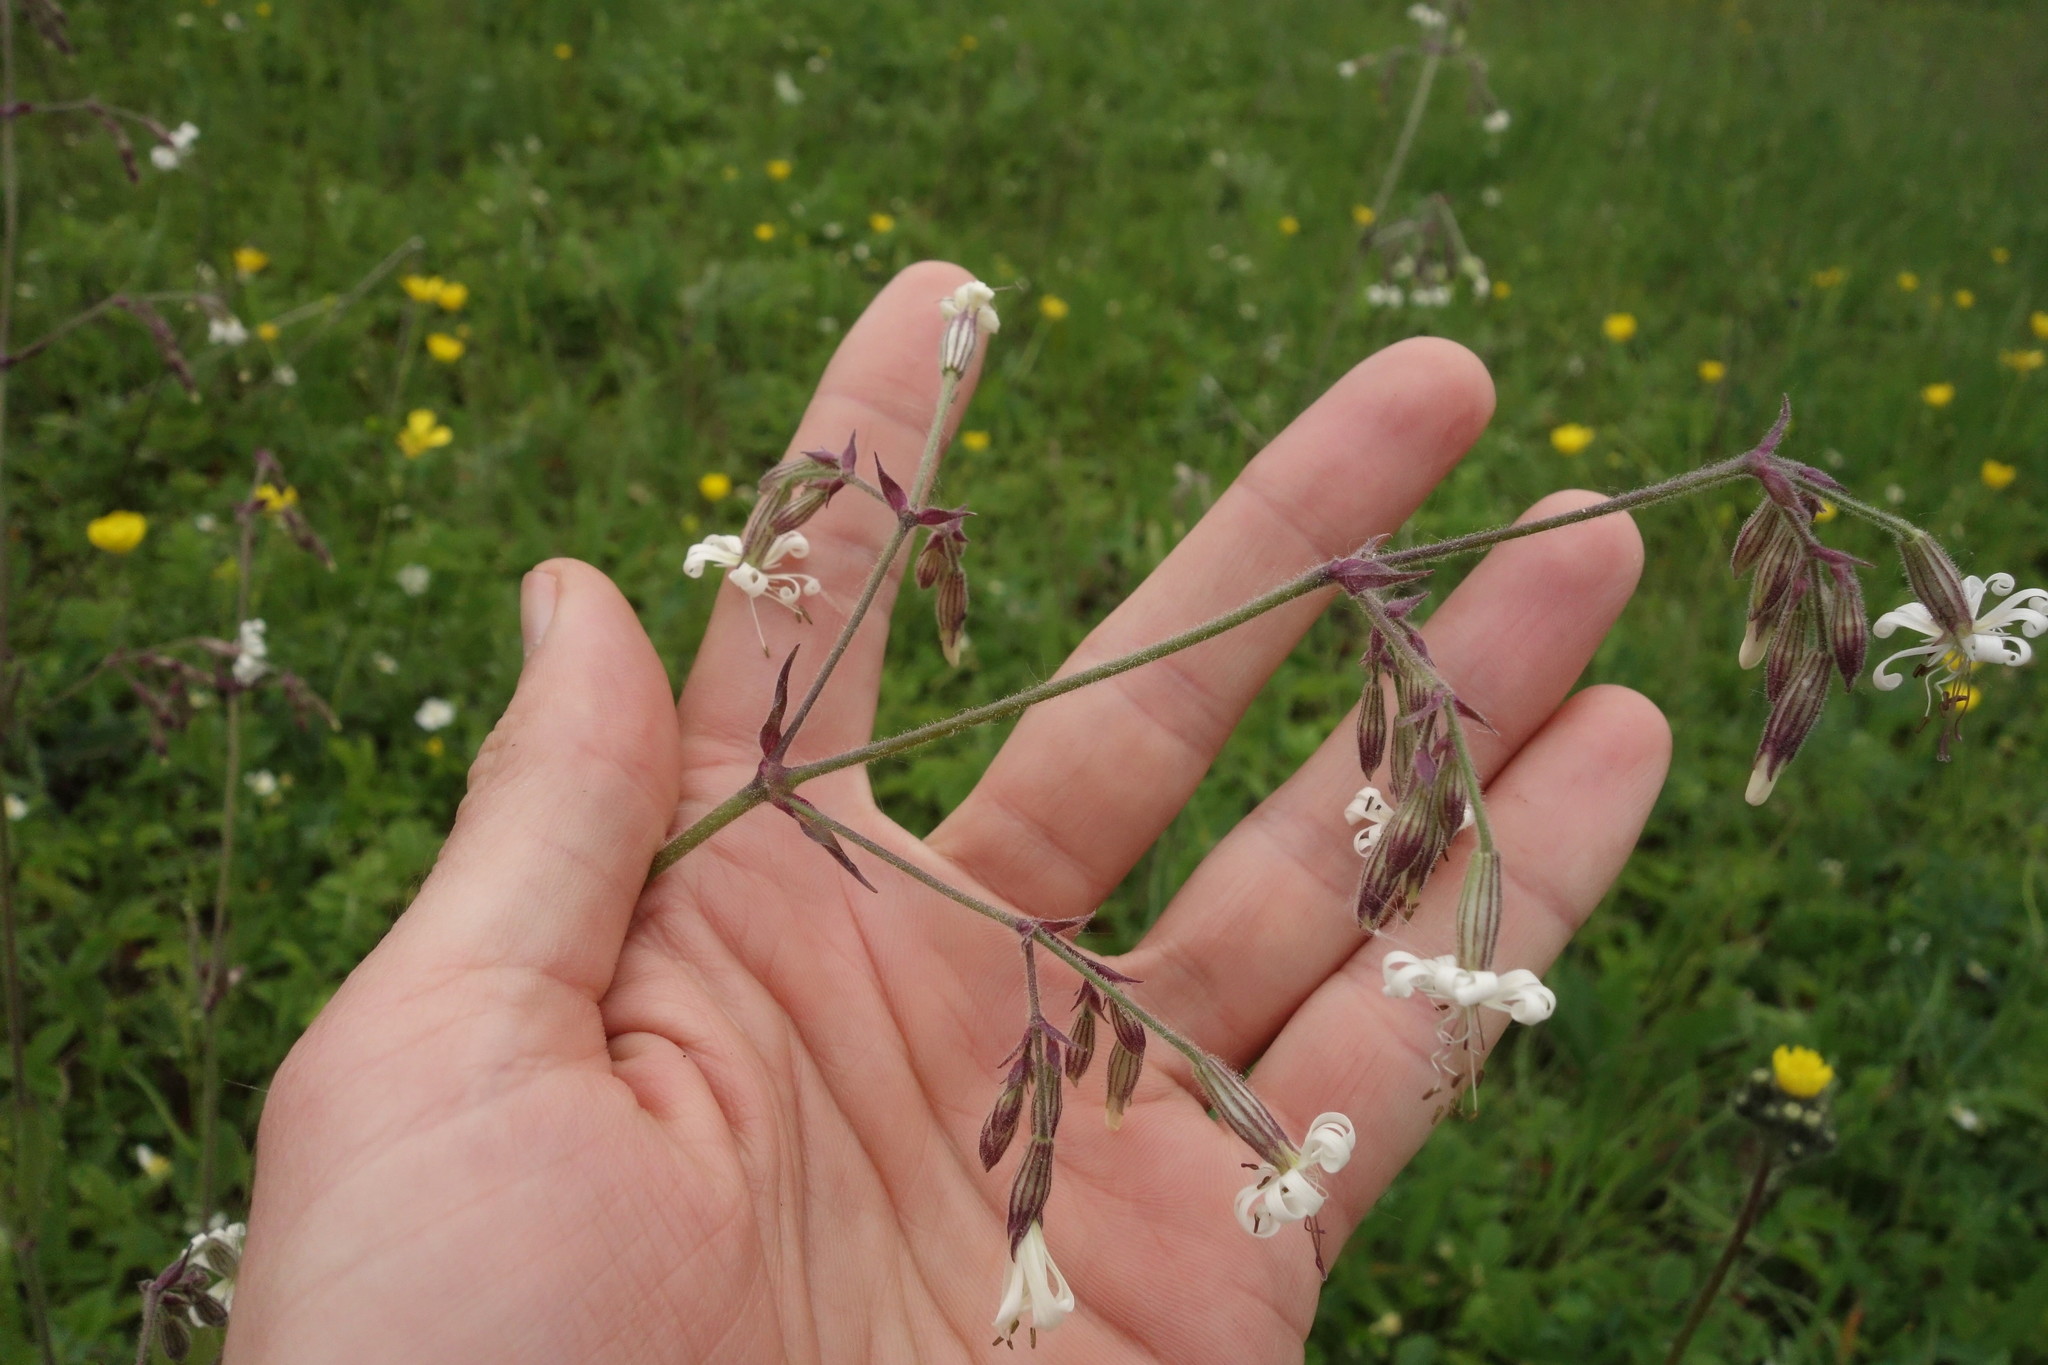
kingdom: Plantae
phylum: Tracheophyta
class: Magnoliopsida
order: Caryophyllales
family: Caryophyllaceae
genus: Silene
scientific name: Silene nutans
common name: Nottingham catchfly
